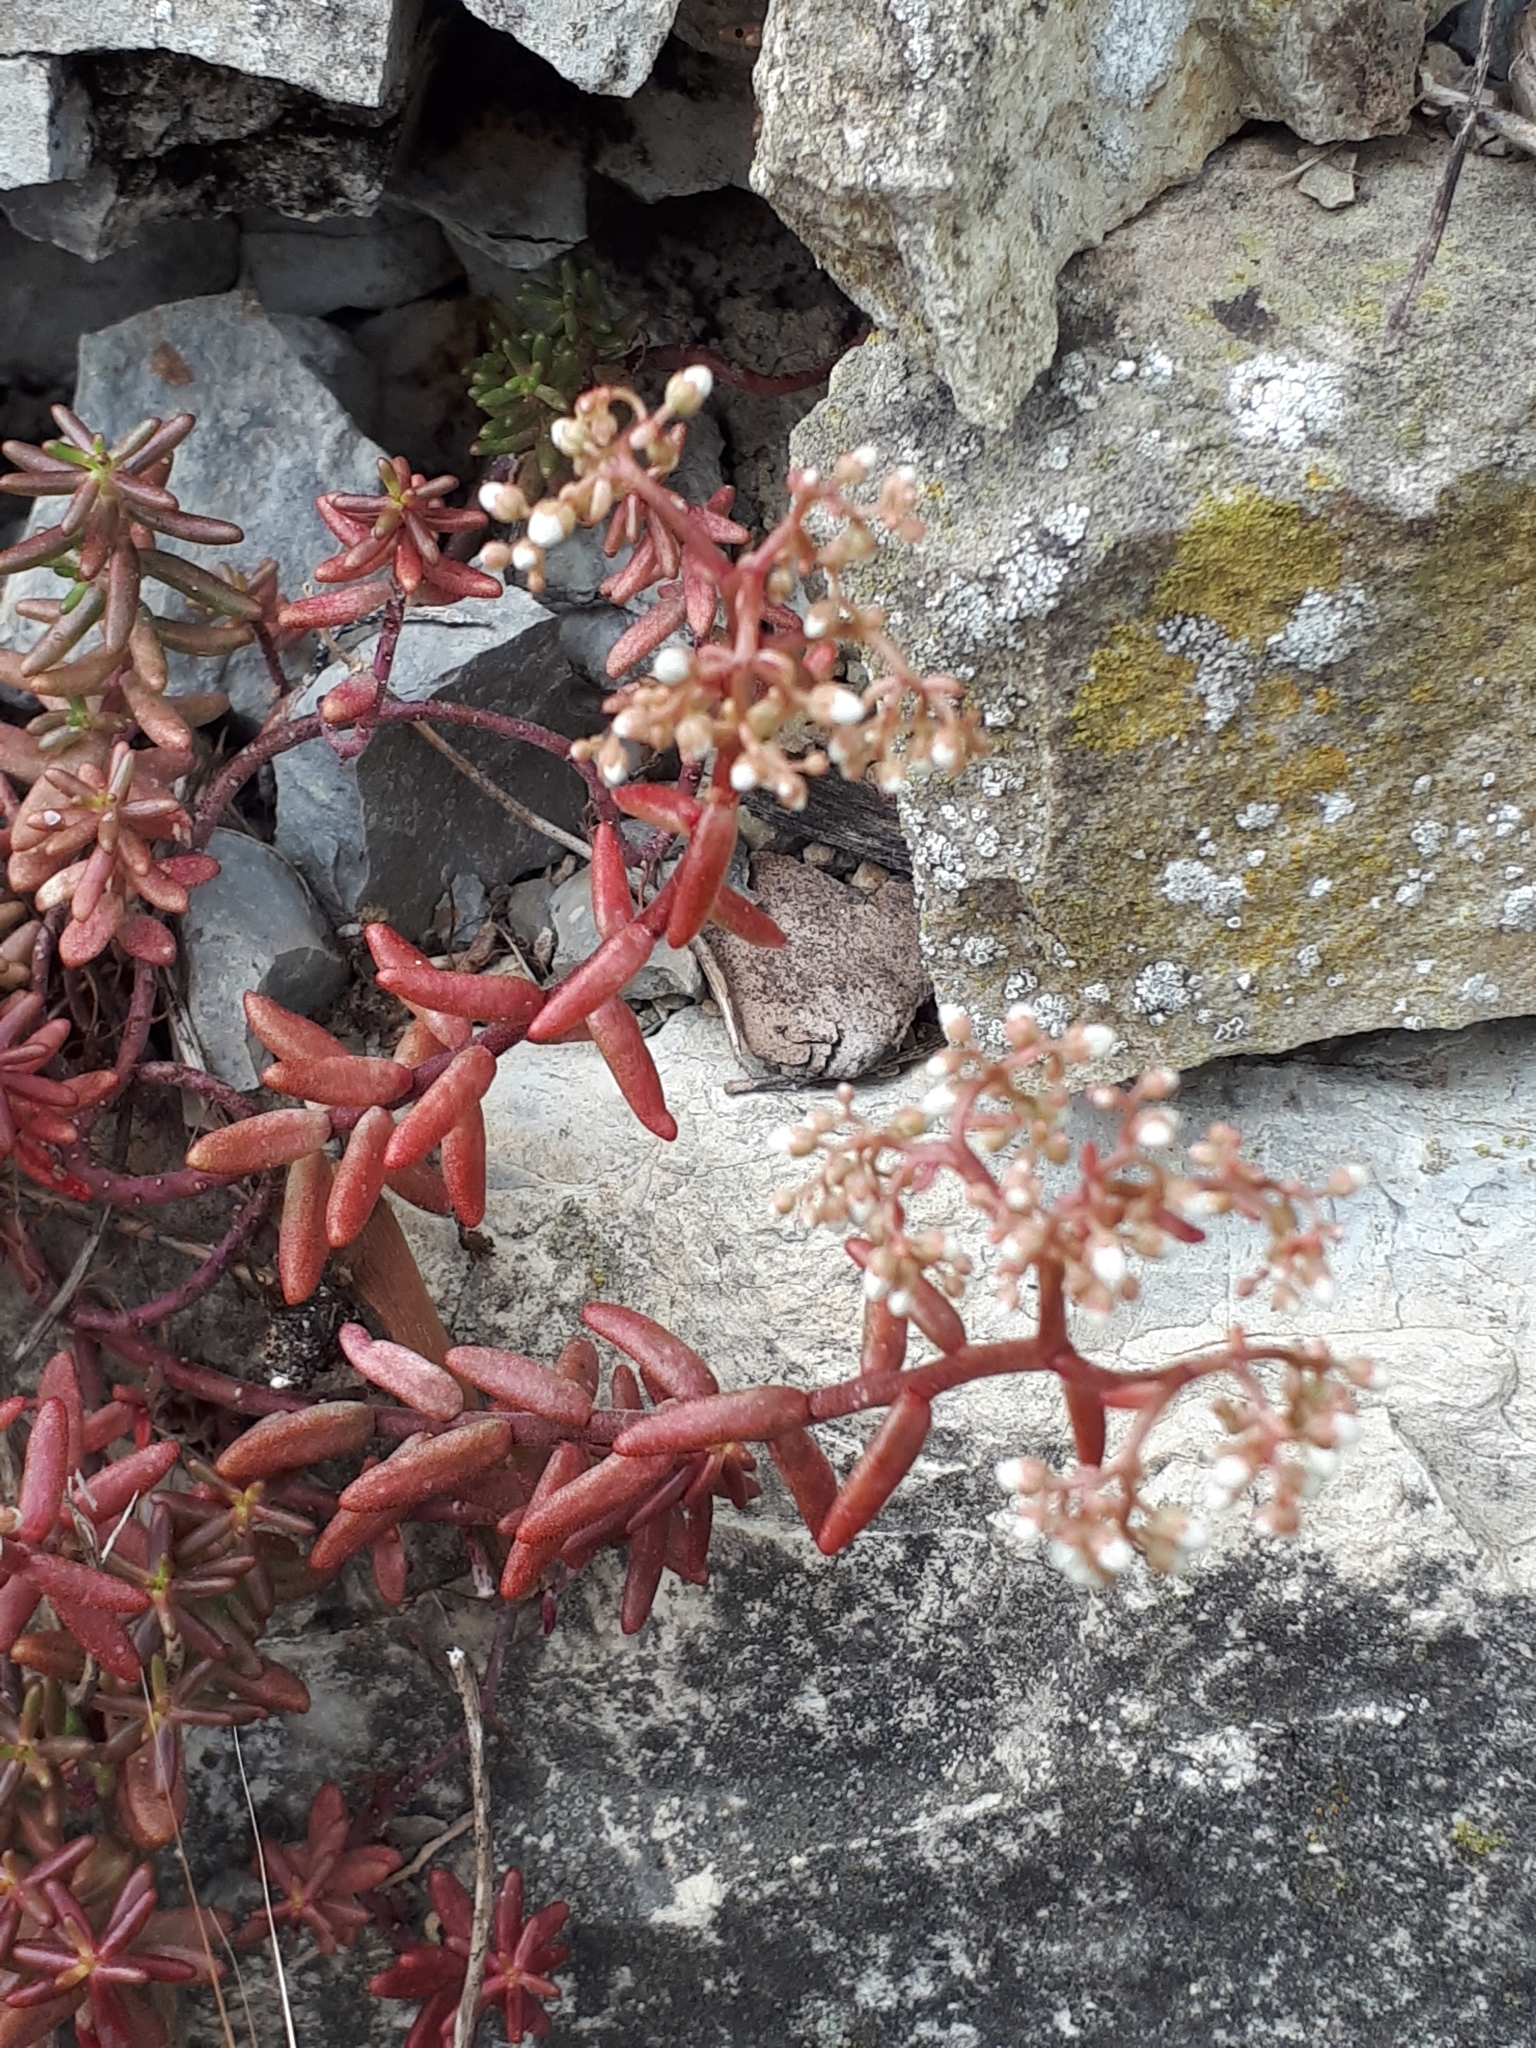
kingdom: Plantae
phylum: Tracheophyta
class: Magnoliopsida
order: Saxifragales
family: Crassulaceae
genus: Sedum
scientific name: Sedum album
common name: White stonecrop
